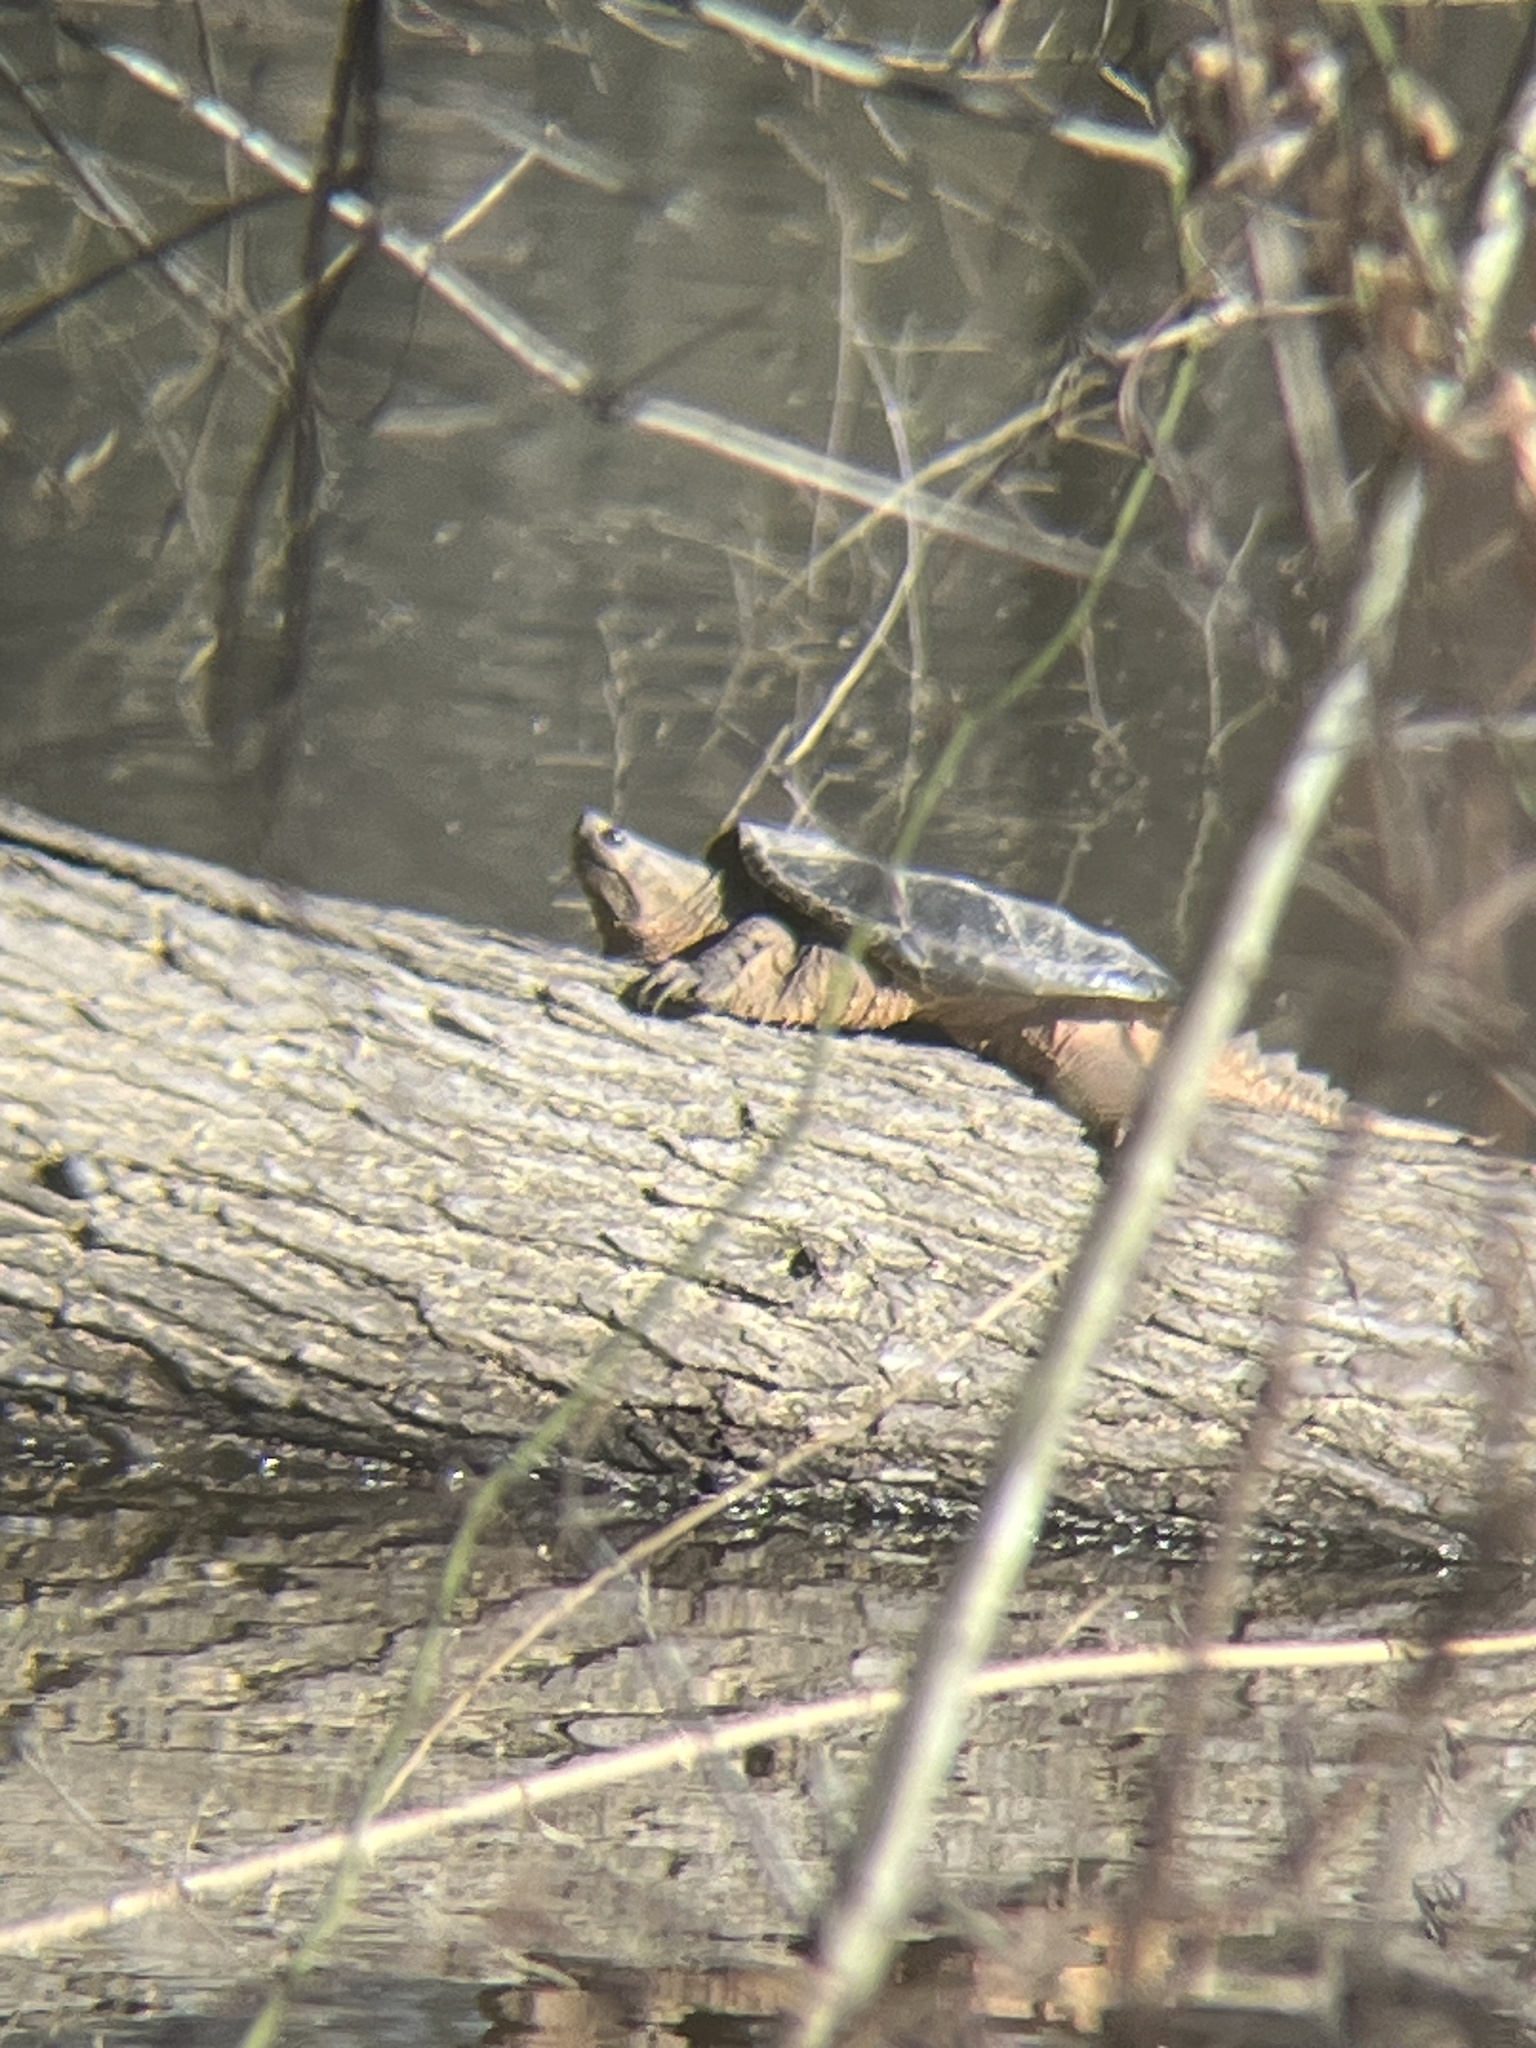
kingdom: Animalia
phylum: Chordata
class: Testudines
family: Chelydridae
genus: Chelydra
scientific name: Chelydra serpentina
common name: Common snapping turtle
